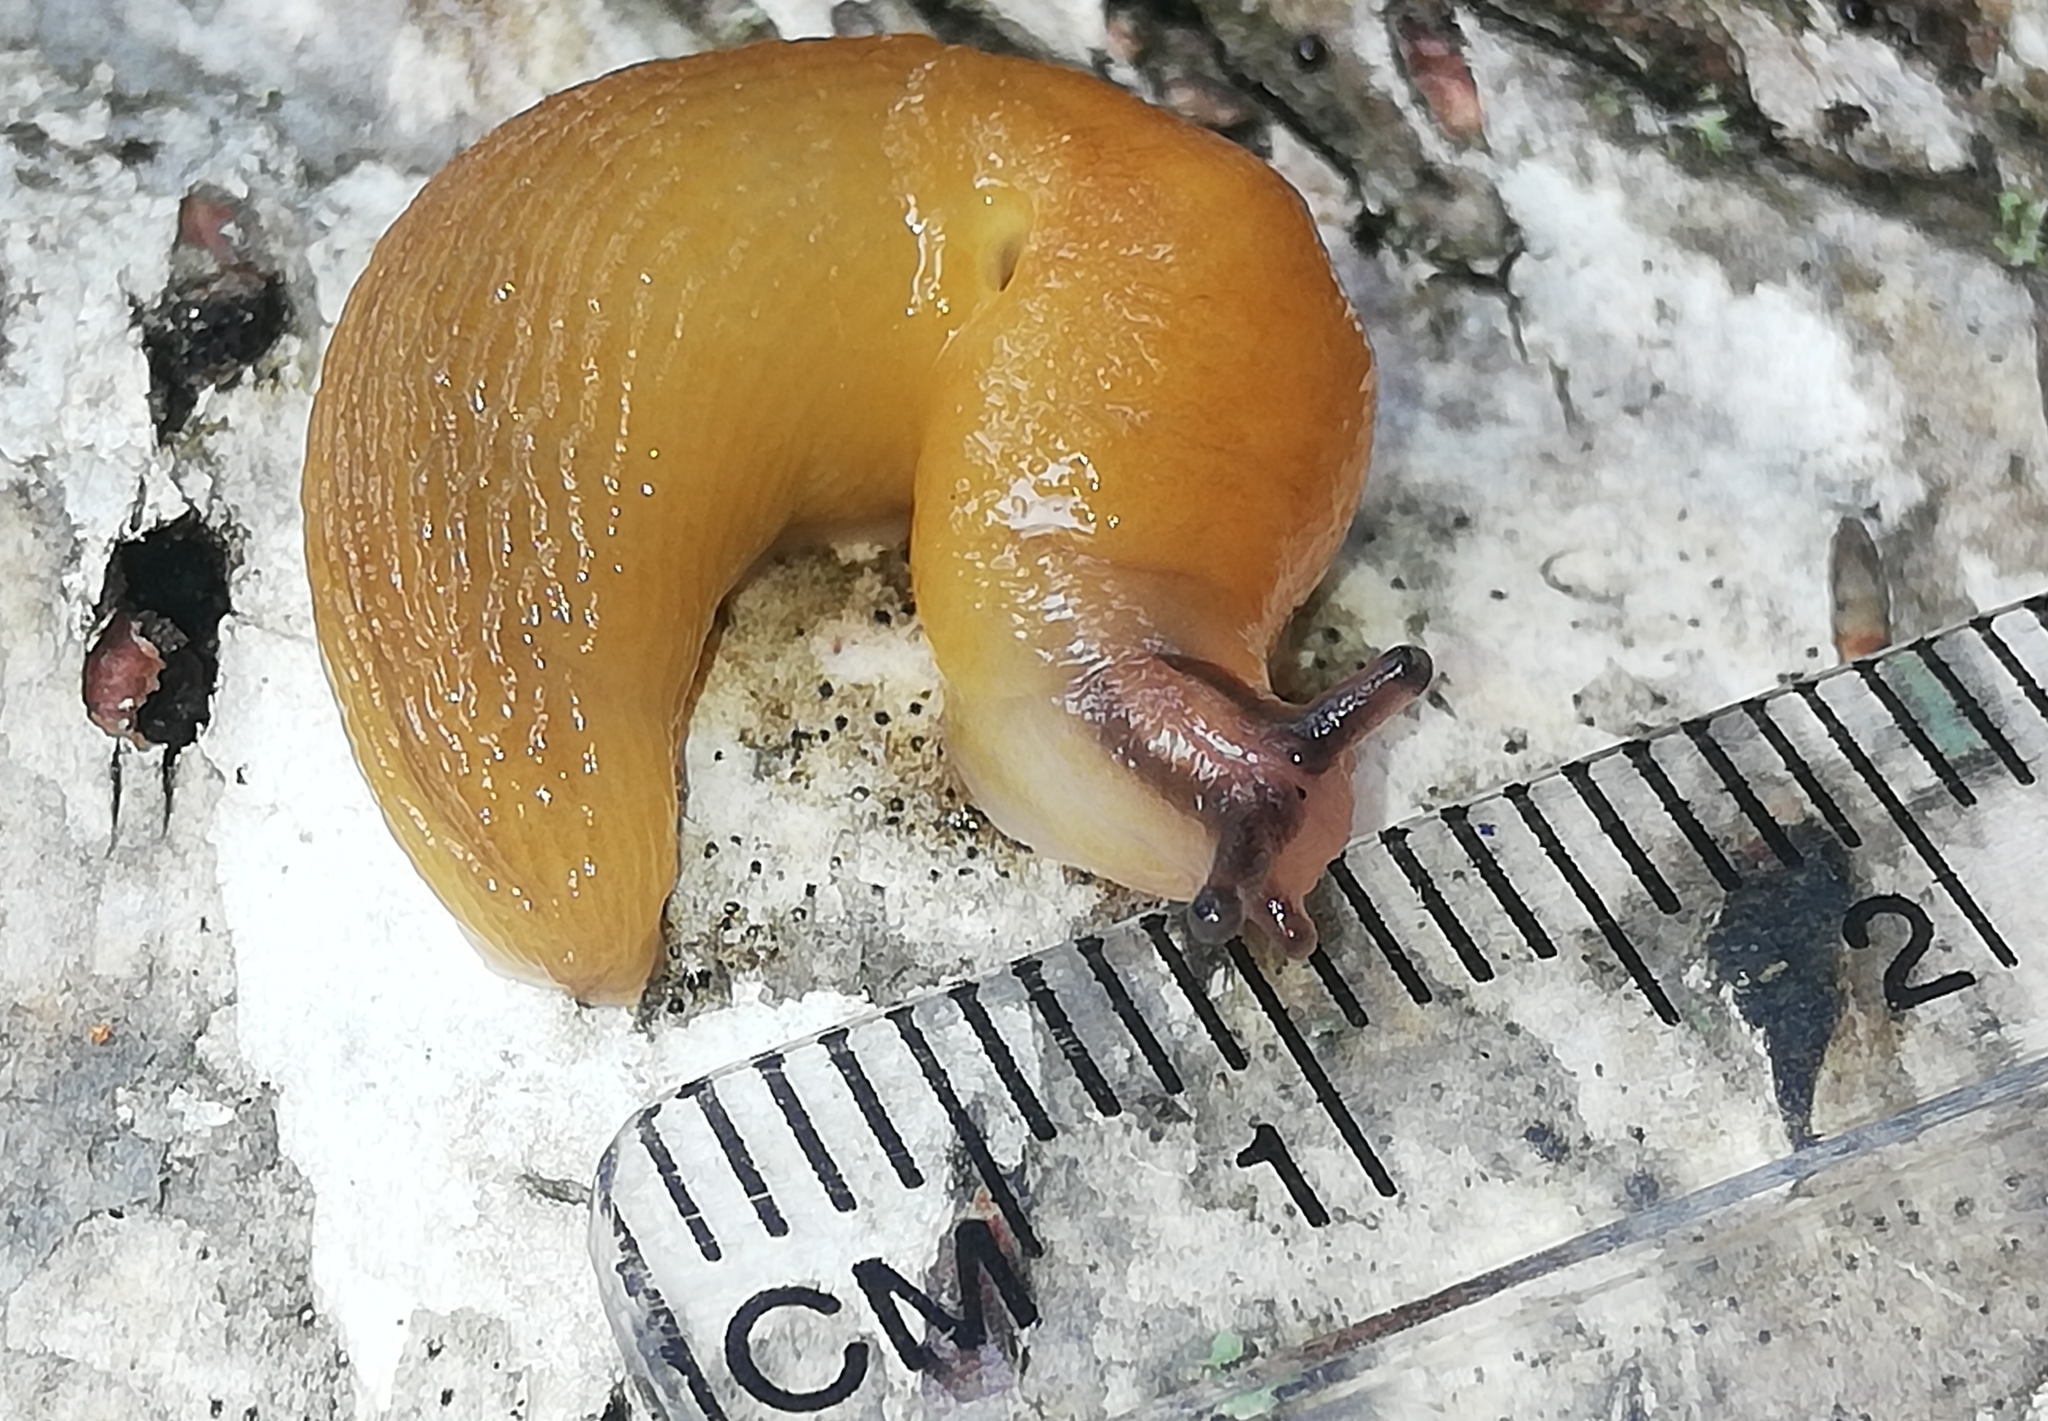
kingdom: Animalia
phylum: Mollusca
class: Gastropoda
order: Stylommatophora
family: Limacidae
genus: Malacolimax
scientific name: Malacolimax tenellus
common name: Lemon slug
